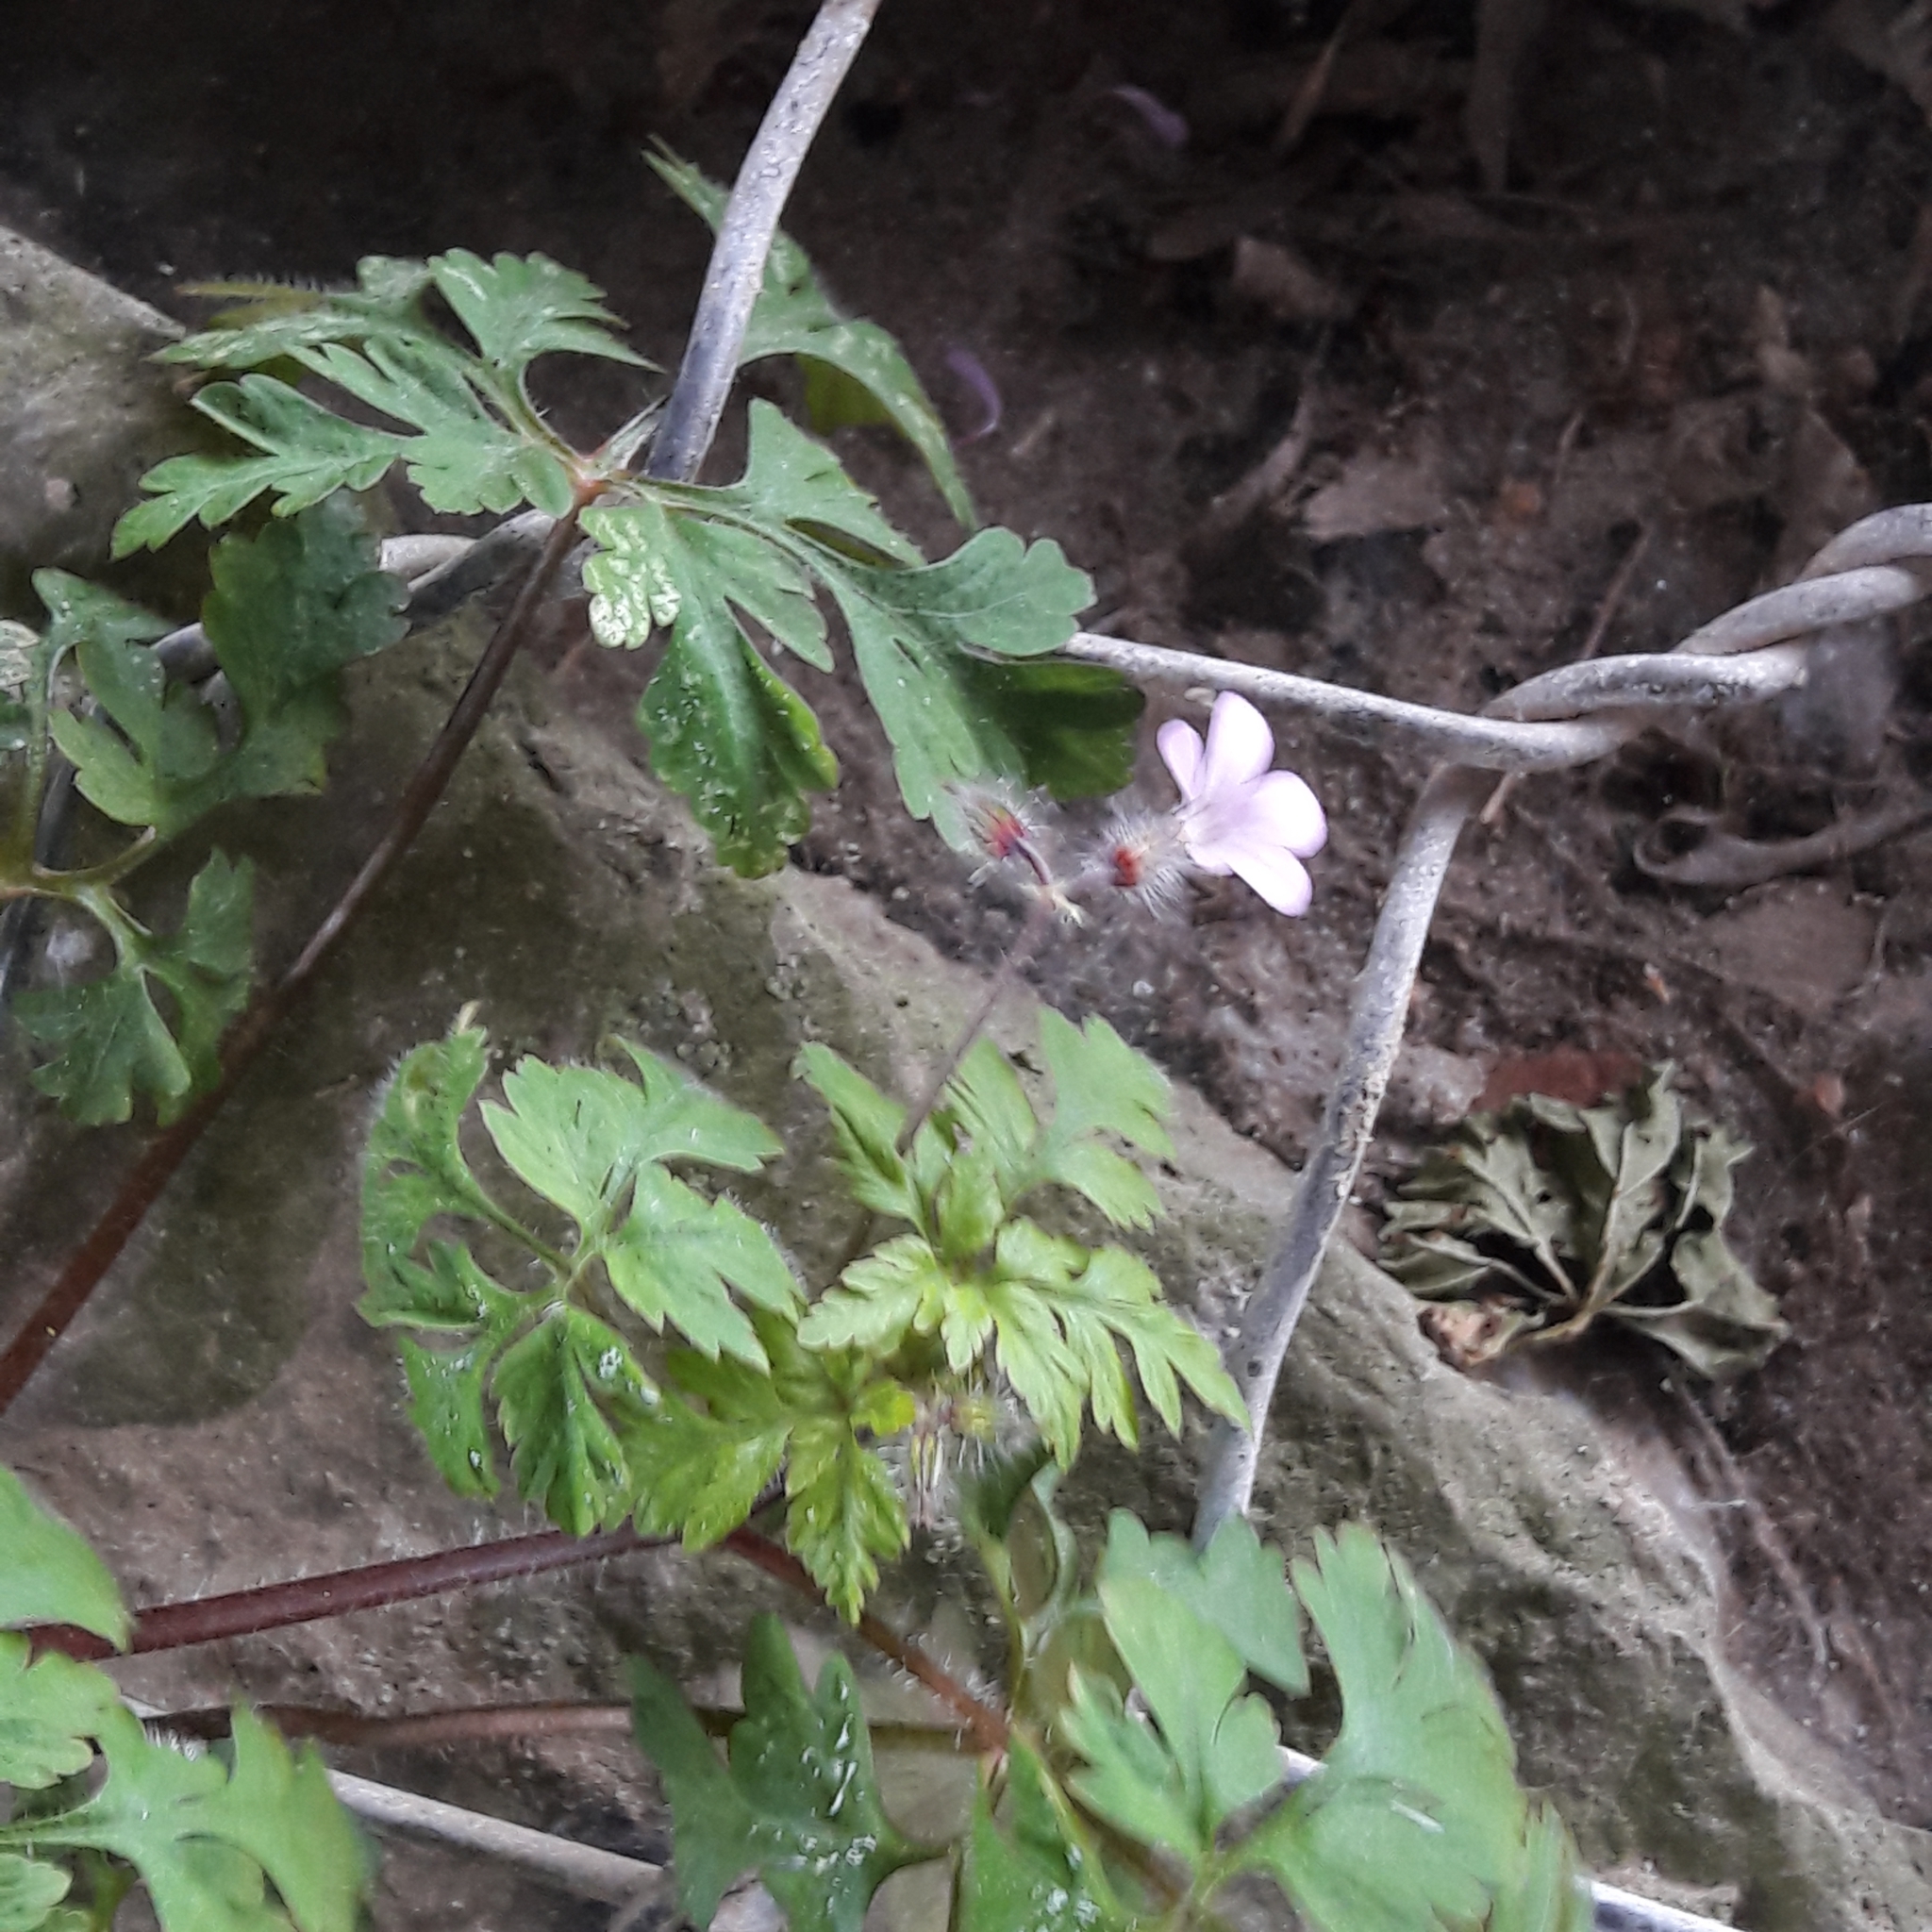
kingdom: Plantae
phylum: Tracheophyta
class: Magnoliopsida
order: Geraniales
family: Geraniaceae
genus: Geranium
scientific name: Geranium robertianum
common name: Herb-robert
